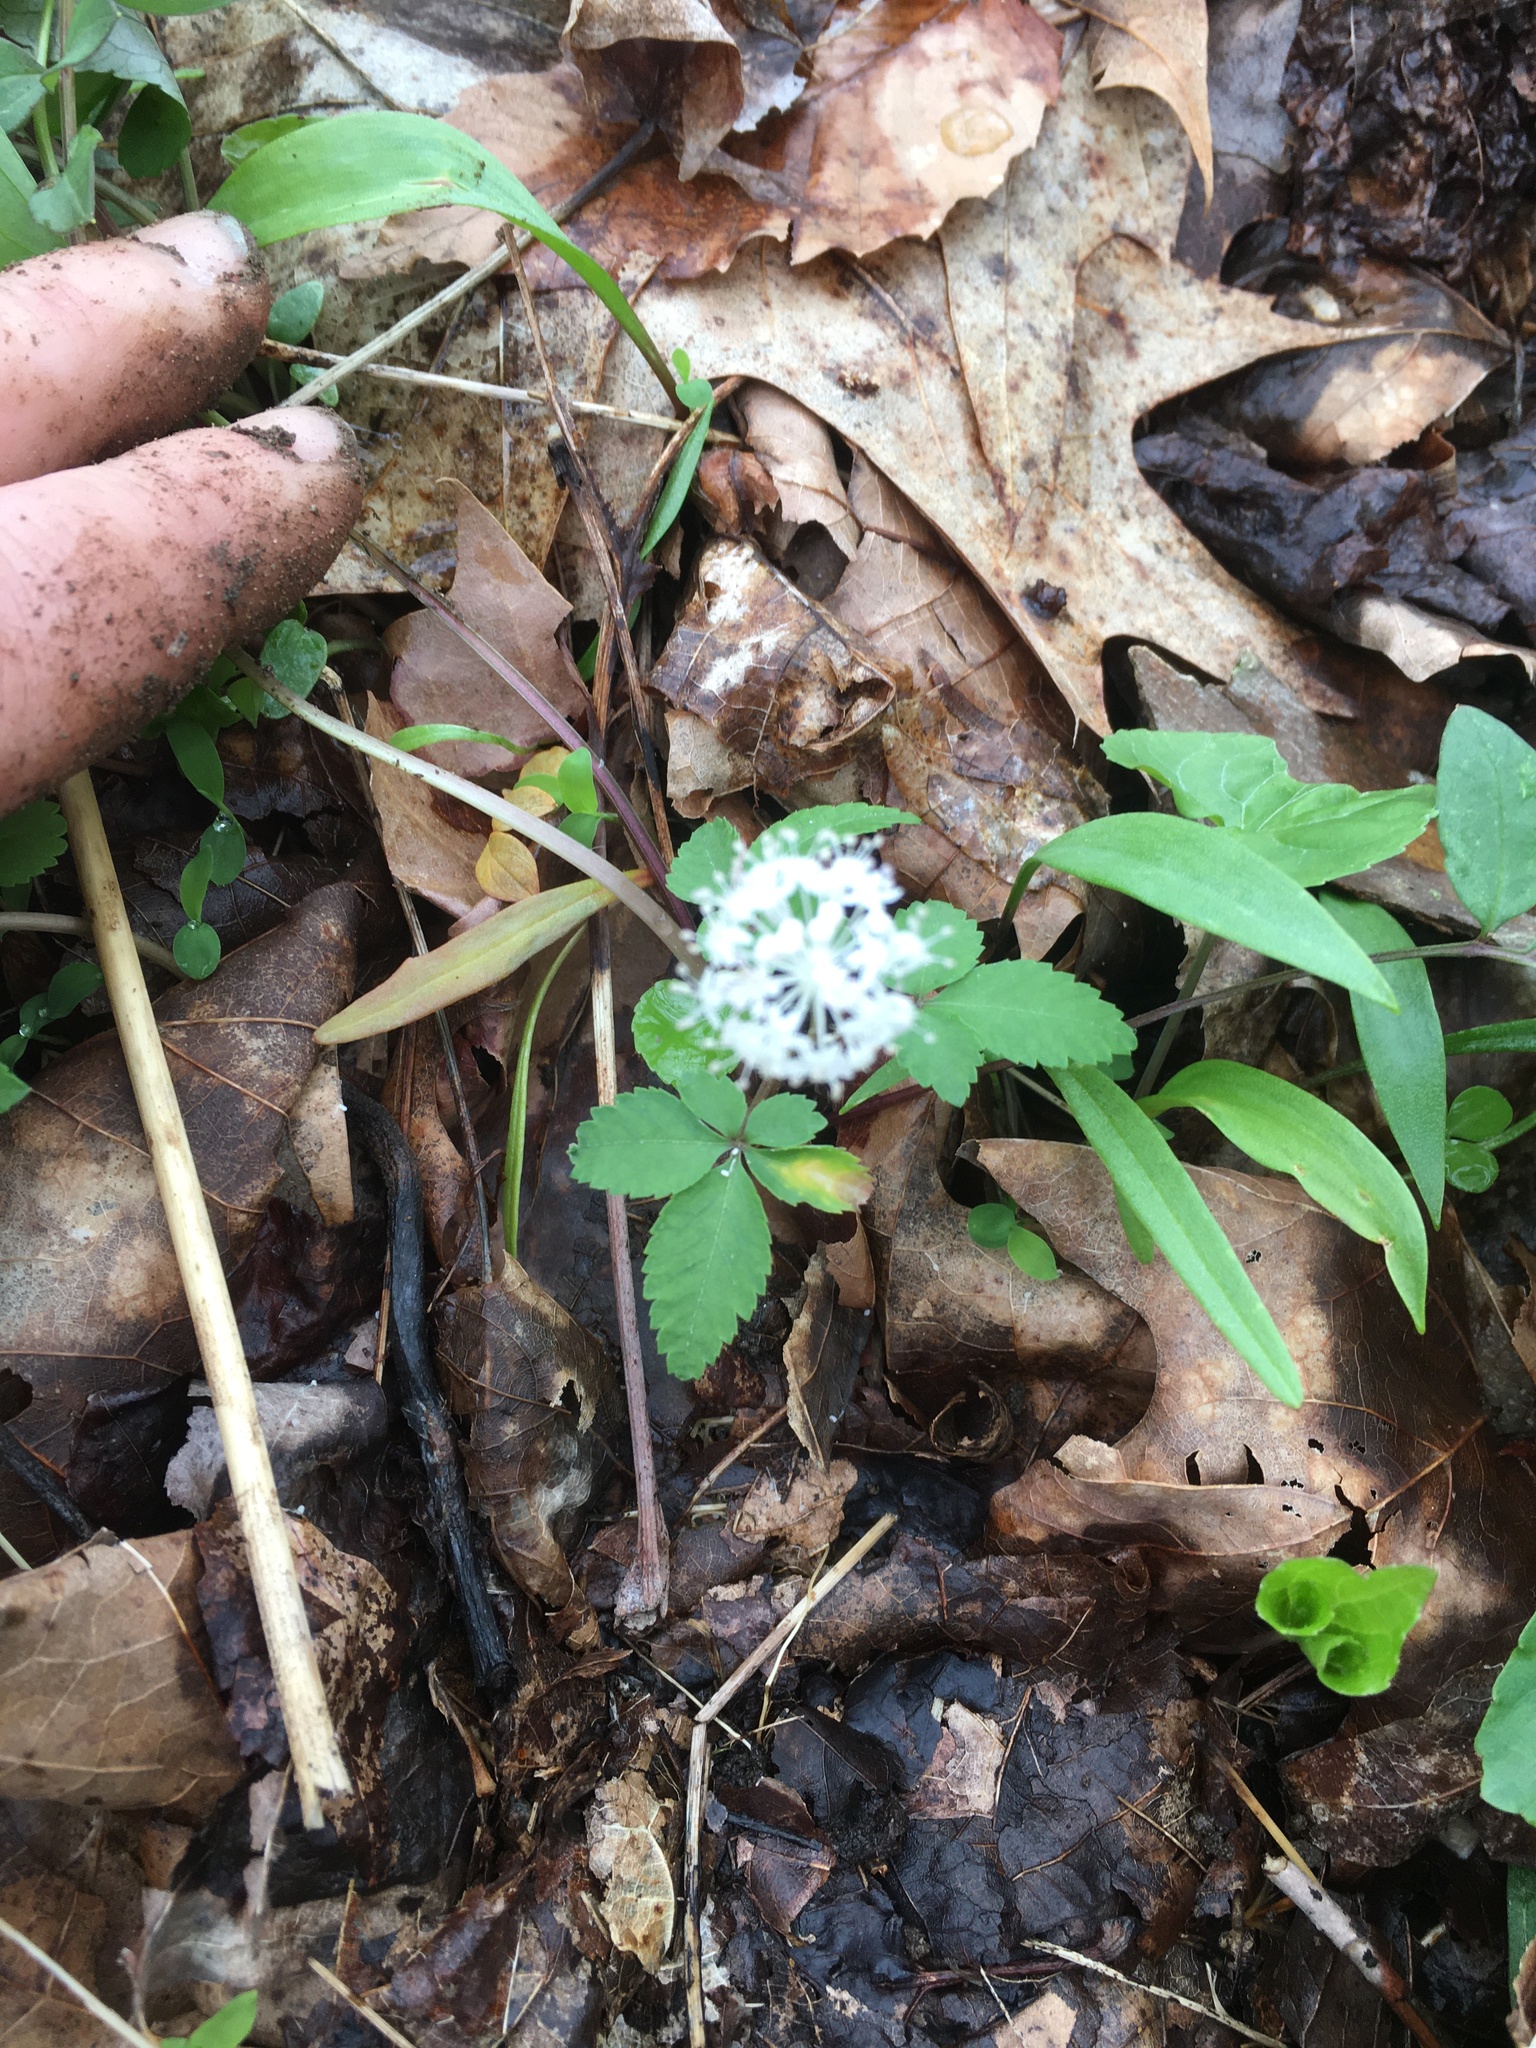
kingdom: Plantae
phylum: Tracheophyta
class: Magnoliopsida
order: Apiales
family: Araliaceae
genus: Panax
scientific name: Panax trifolius
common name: Dwarf ginseng
